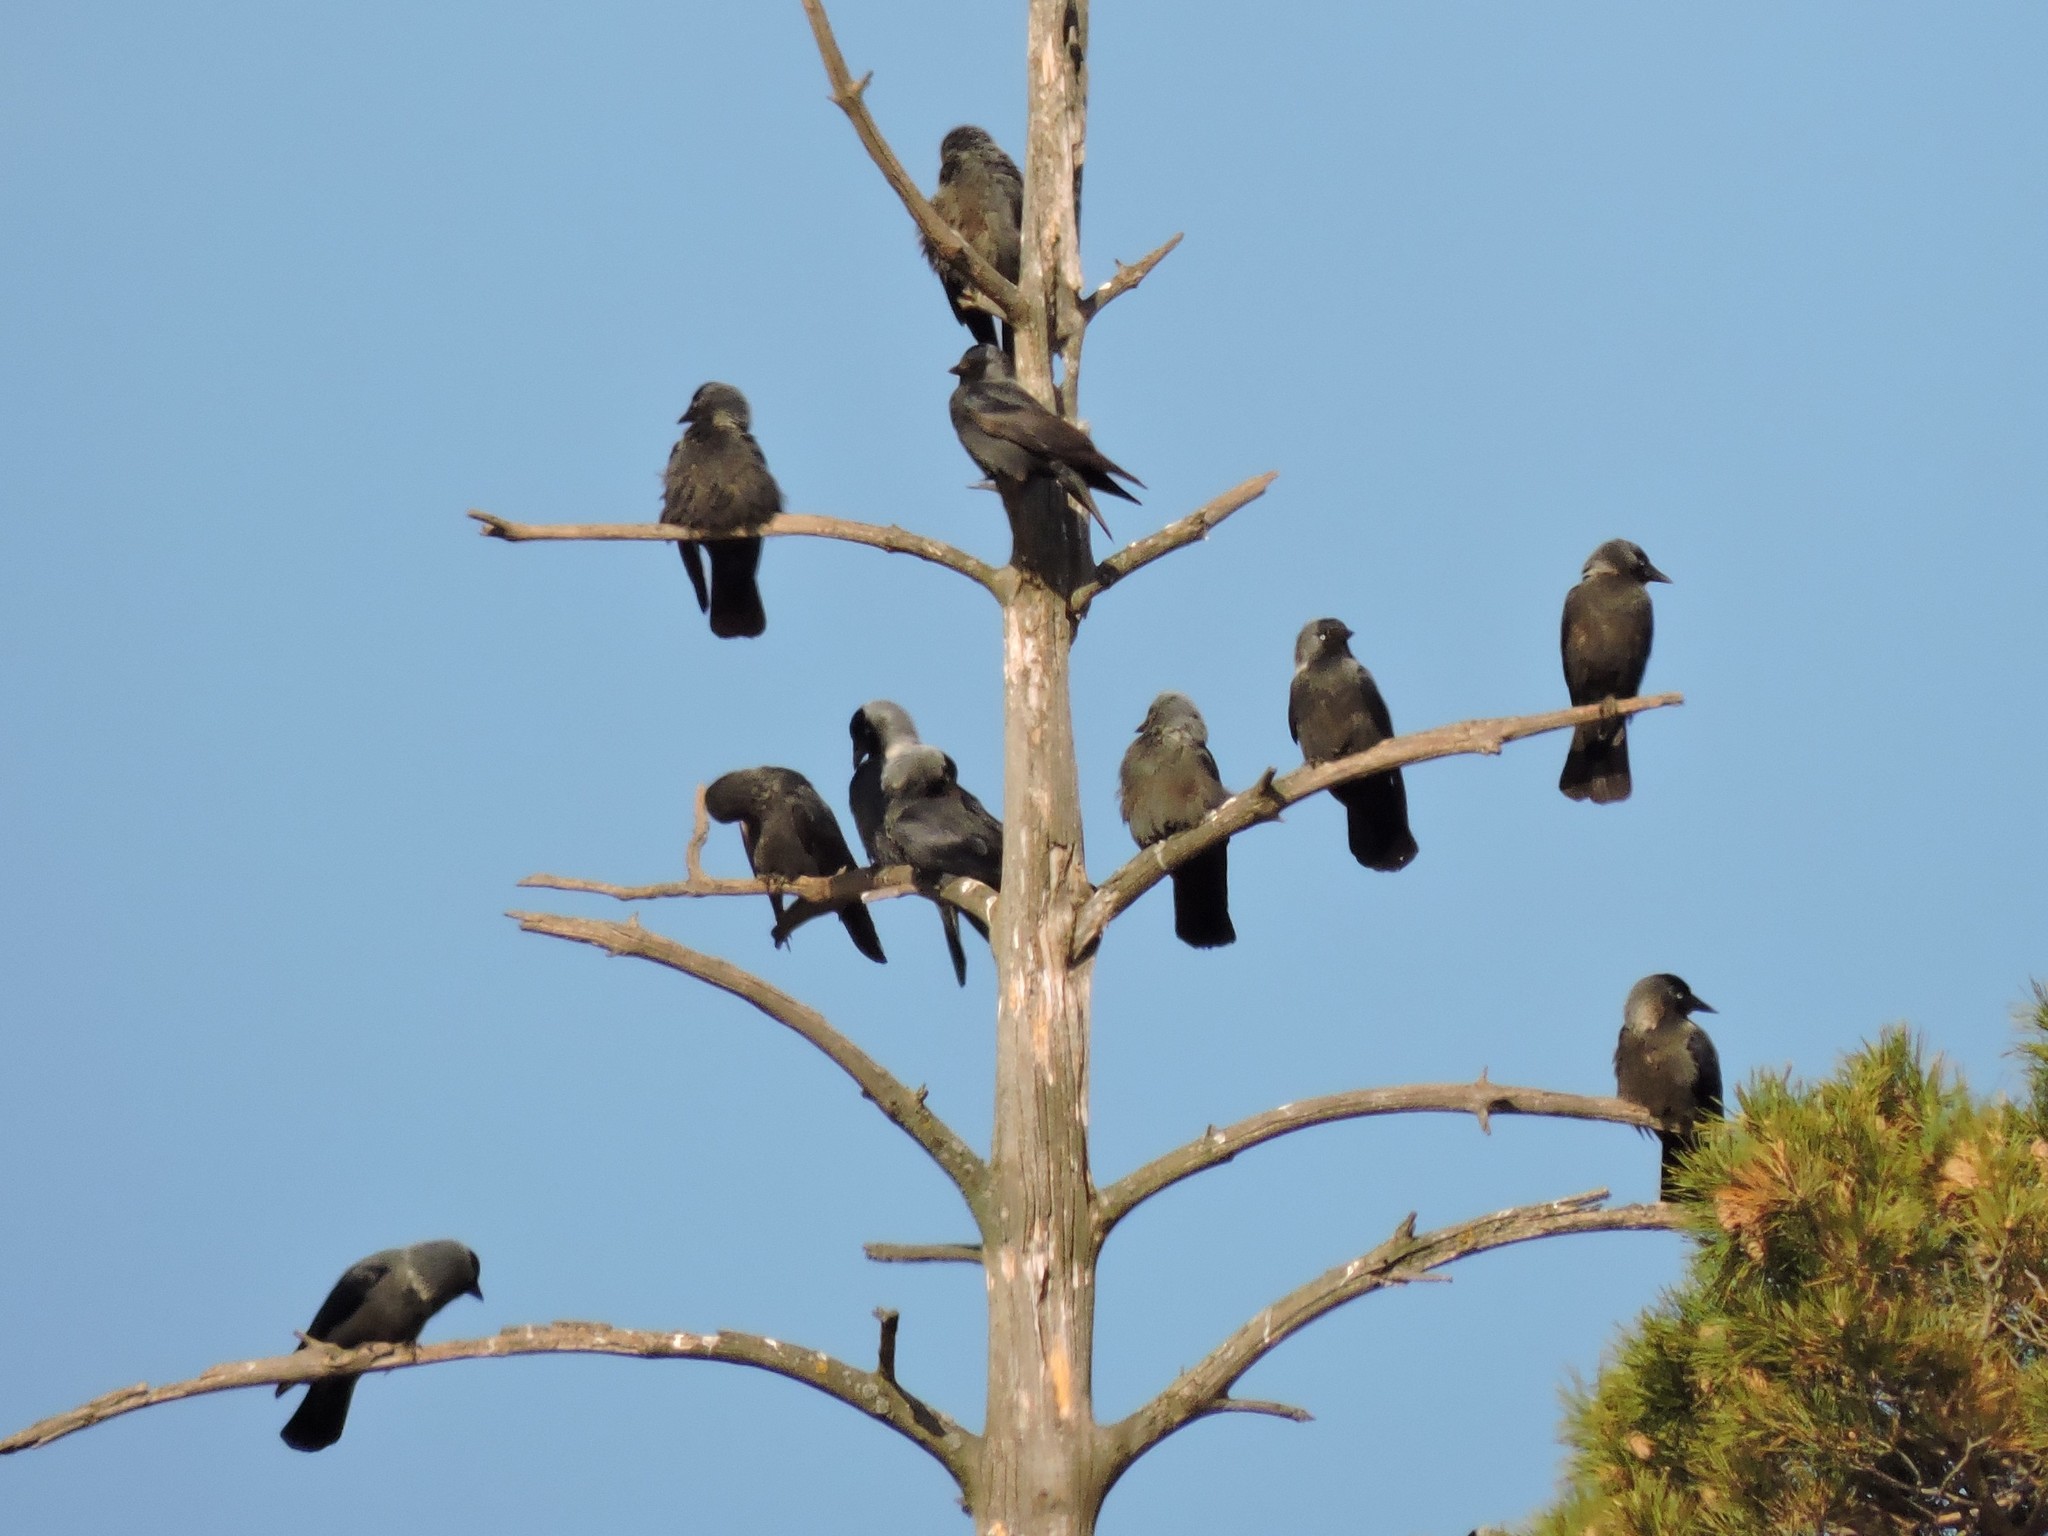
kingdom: Animalia
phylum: Chordata
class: Aves
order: Passeriformes
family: Corvidae
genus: Coloeus
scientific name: Coloeus monedula
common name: Western jackdaw
